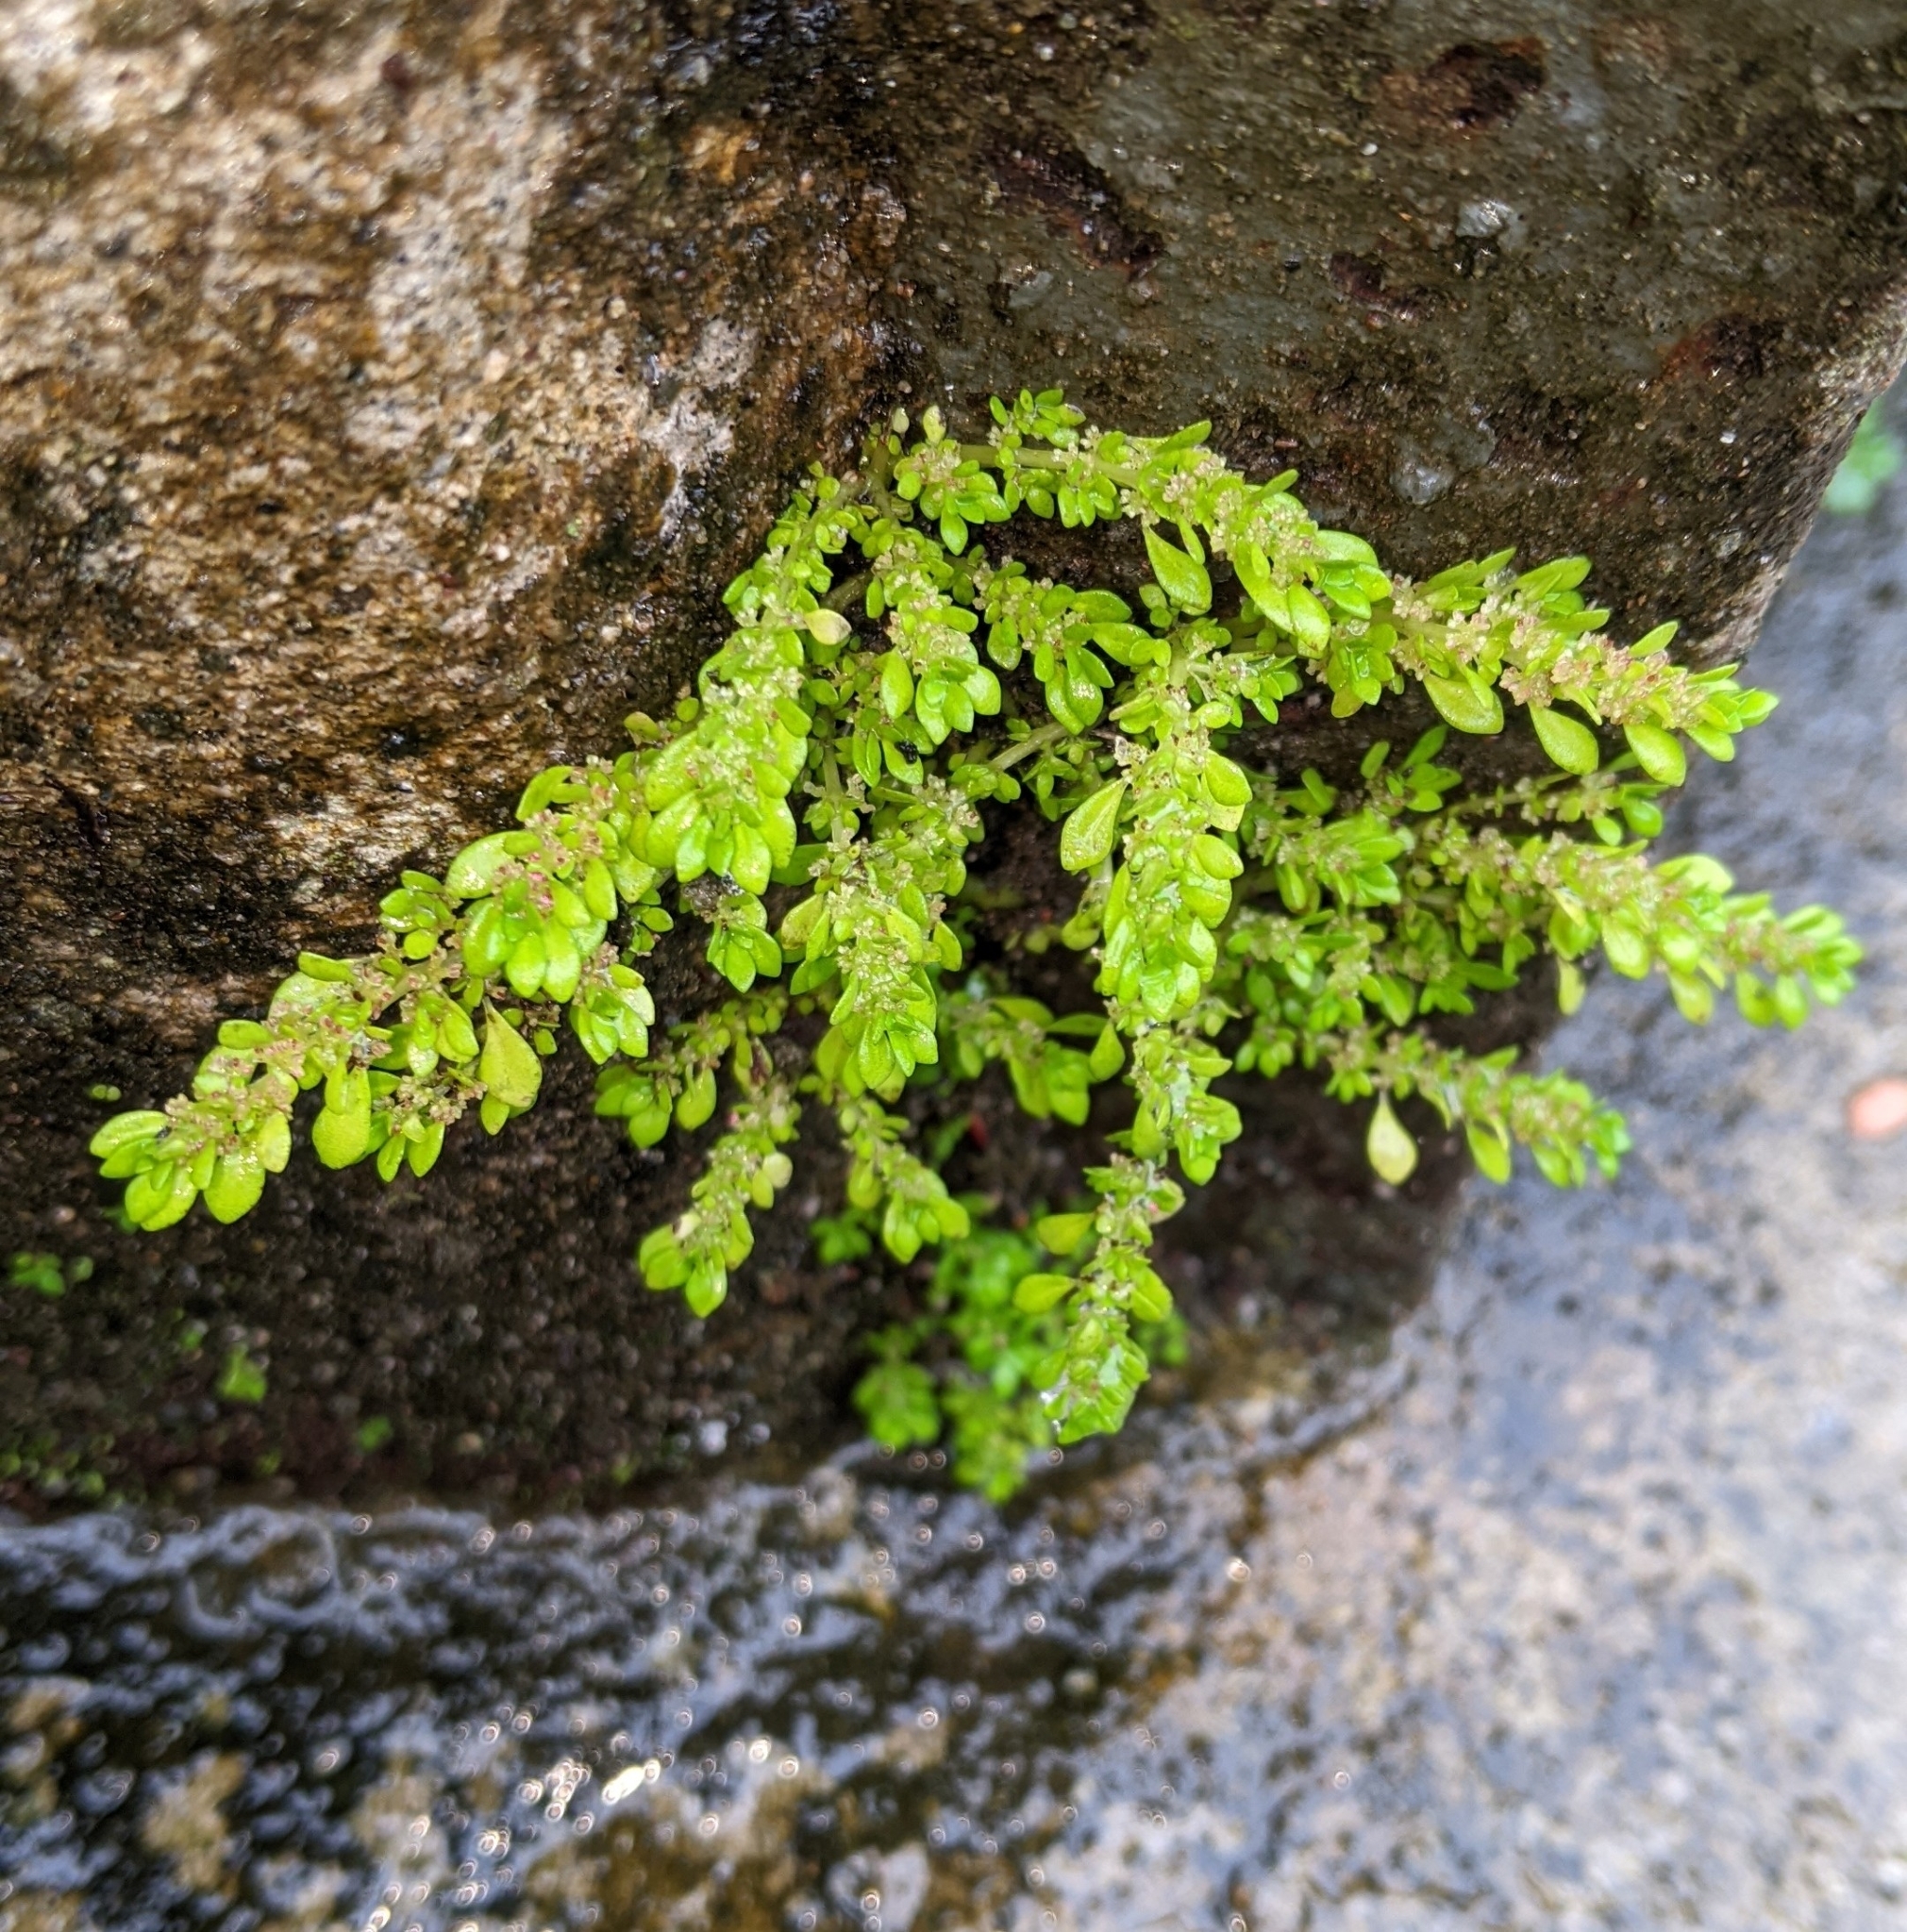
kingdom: Plantae
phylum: Tracheophyta
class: Magnoliopsida
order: Rosales
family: Urticaceae
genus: Pilea
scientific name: Pilea microphylla
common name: Artillery-plant
